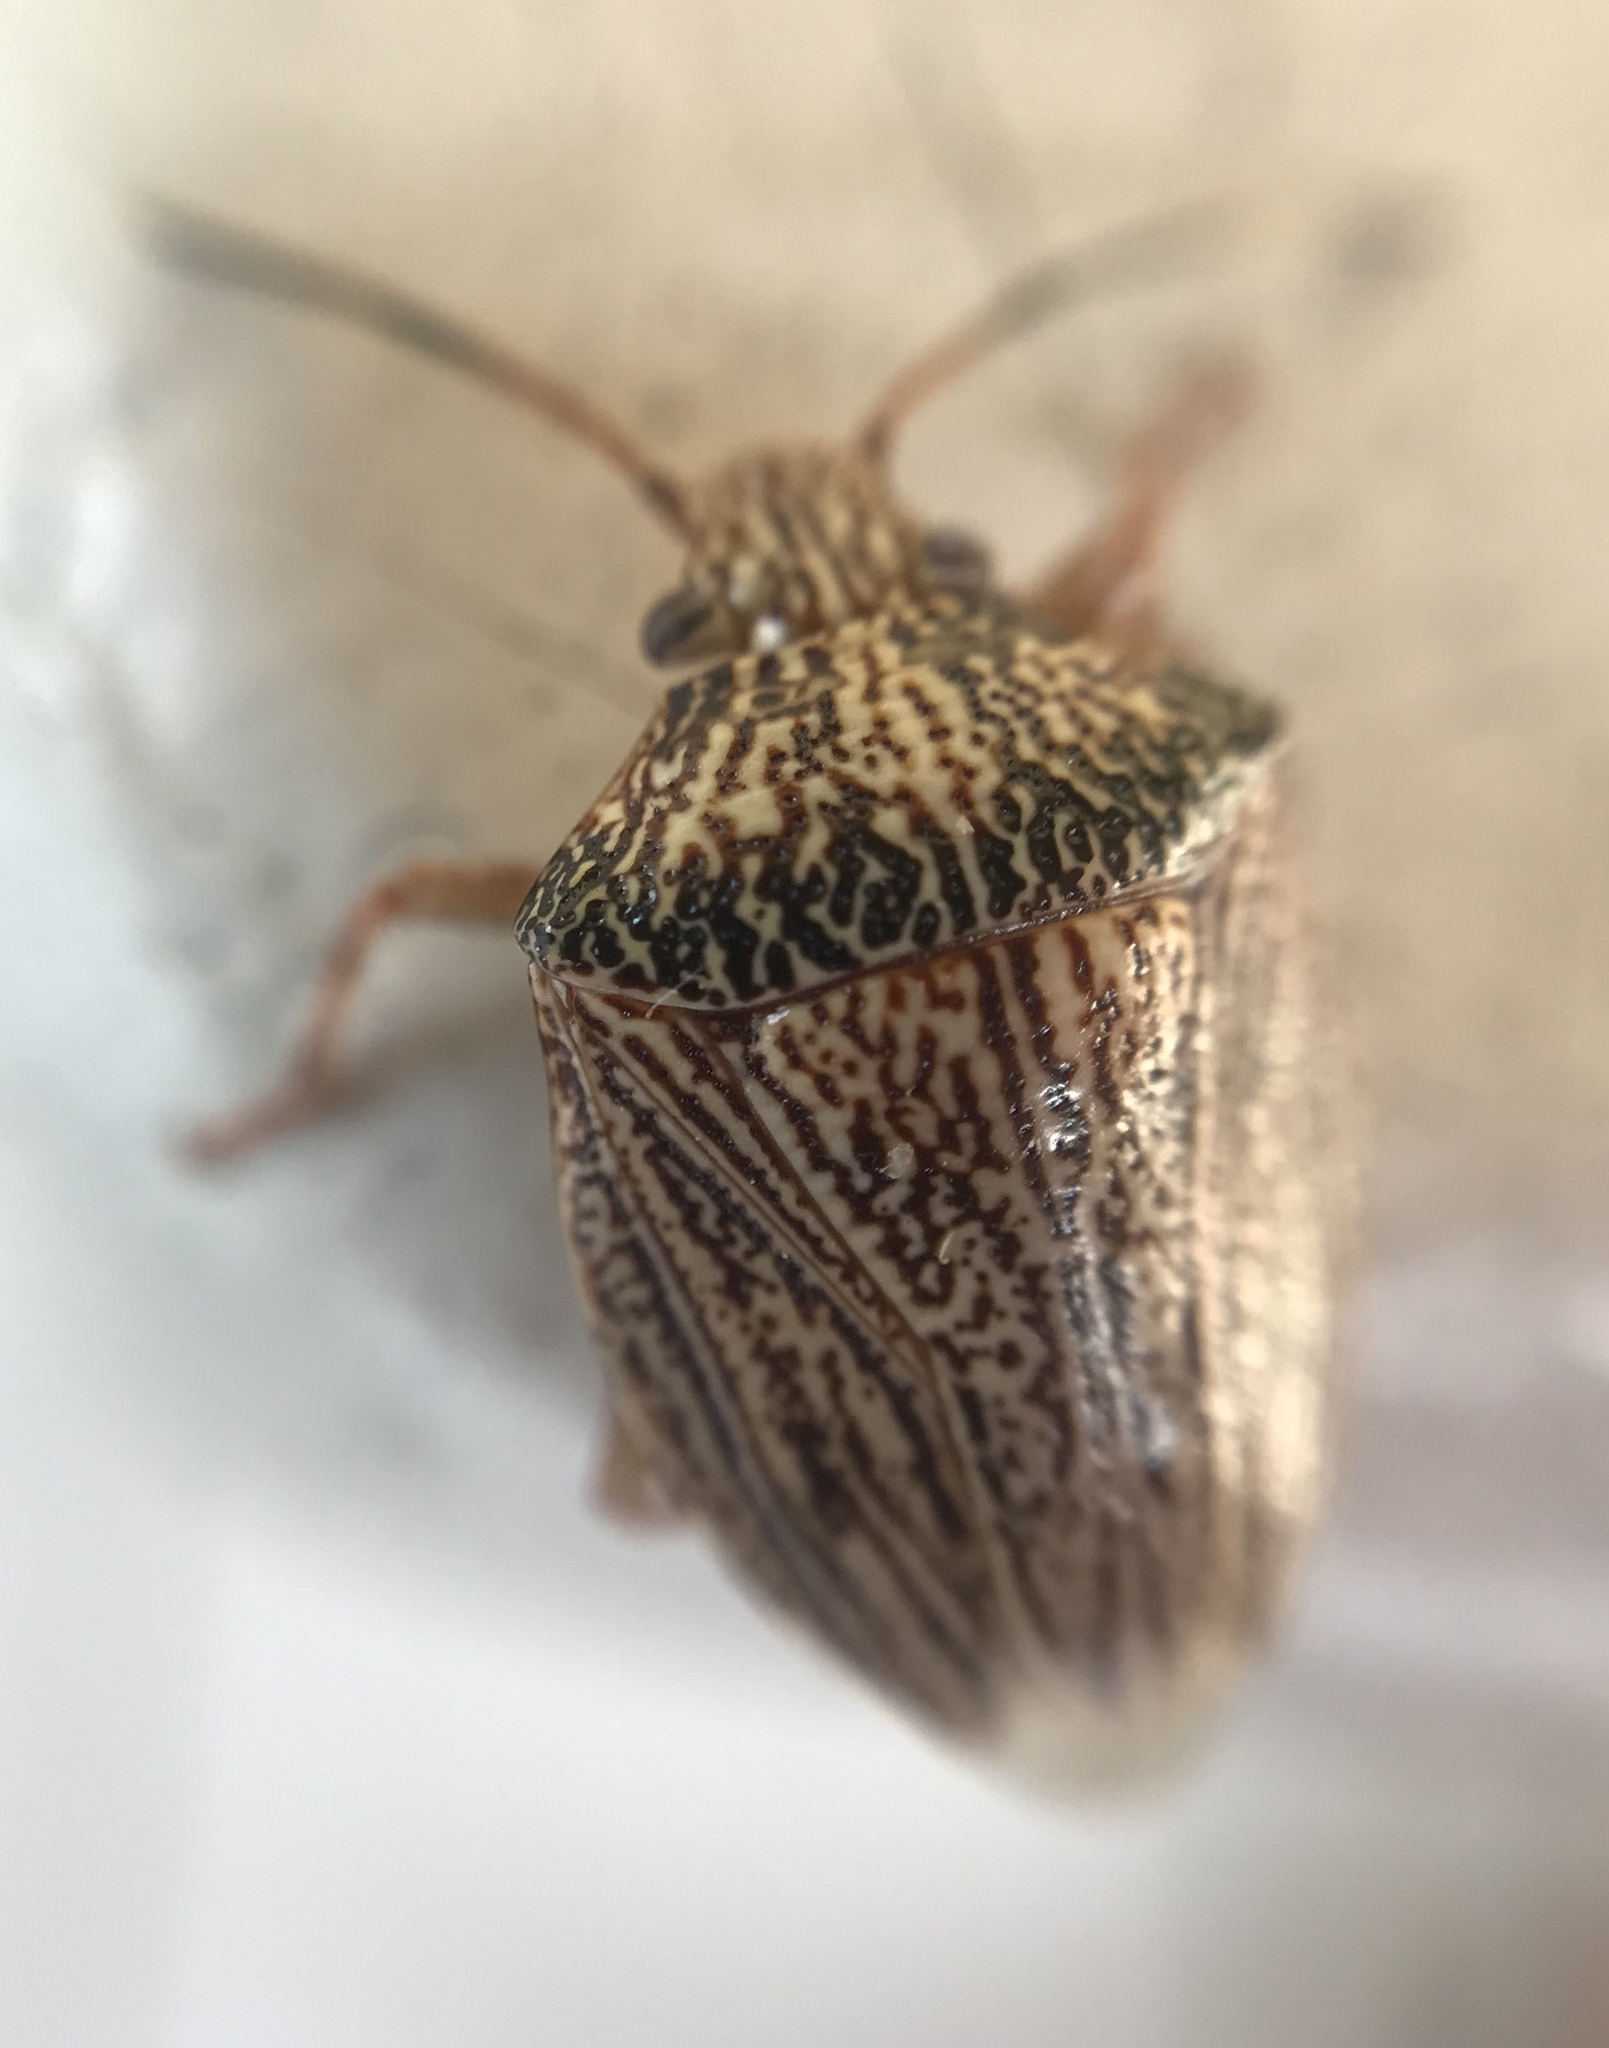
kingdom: Animalia
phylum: Arthropoda
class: Insecta
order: Hemiptera
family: Pentatomidae
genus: Antiteuchus
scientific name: Antiteuchus macraspis
